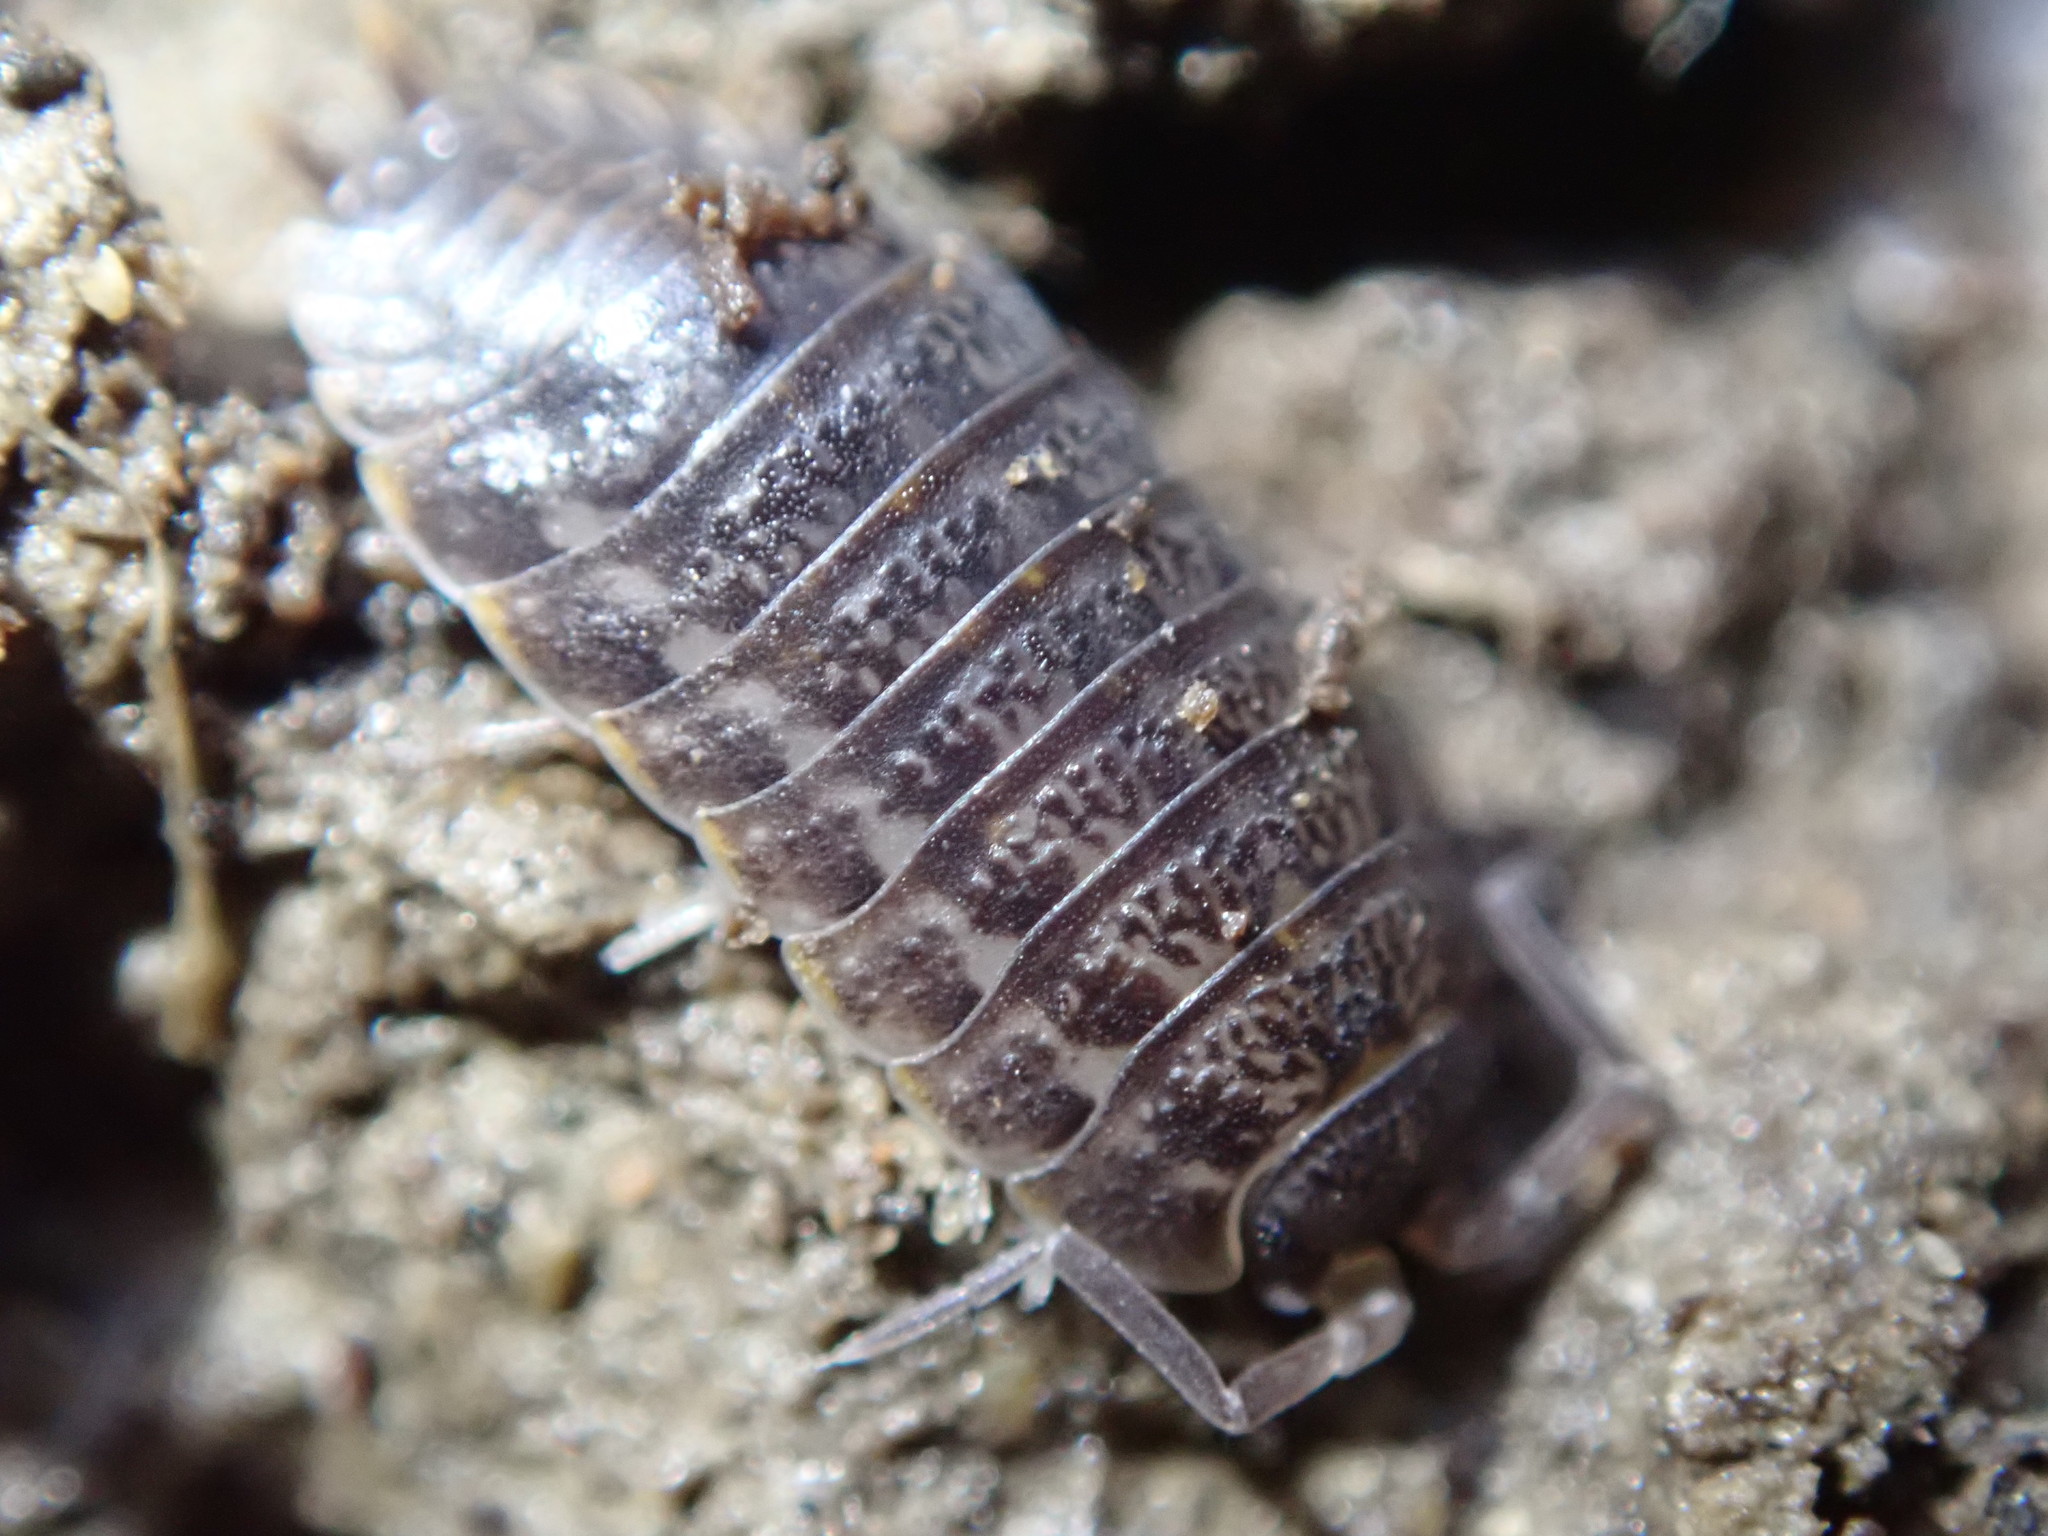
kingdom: Animalia
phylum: Arthropoda
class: Malacostraca
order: Isopoda
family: Trachelipodidae
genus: Trachelipus
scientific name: Trachelipus rathkii
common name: Isopod
